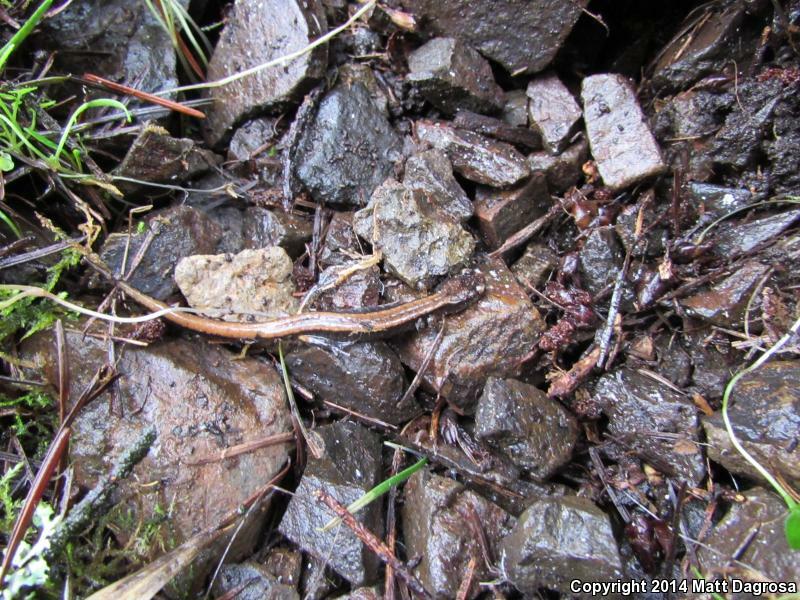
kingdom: Animalia
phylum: Chordata
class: Amphibia
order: Caudata
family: Plethodontidae
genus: Plethodon
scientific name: Plethodon vehiculum
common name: Western red-backed salamander
